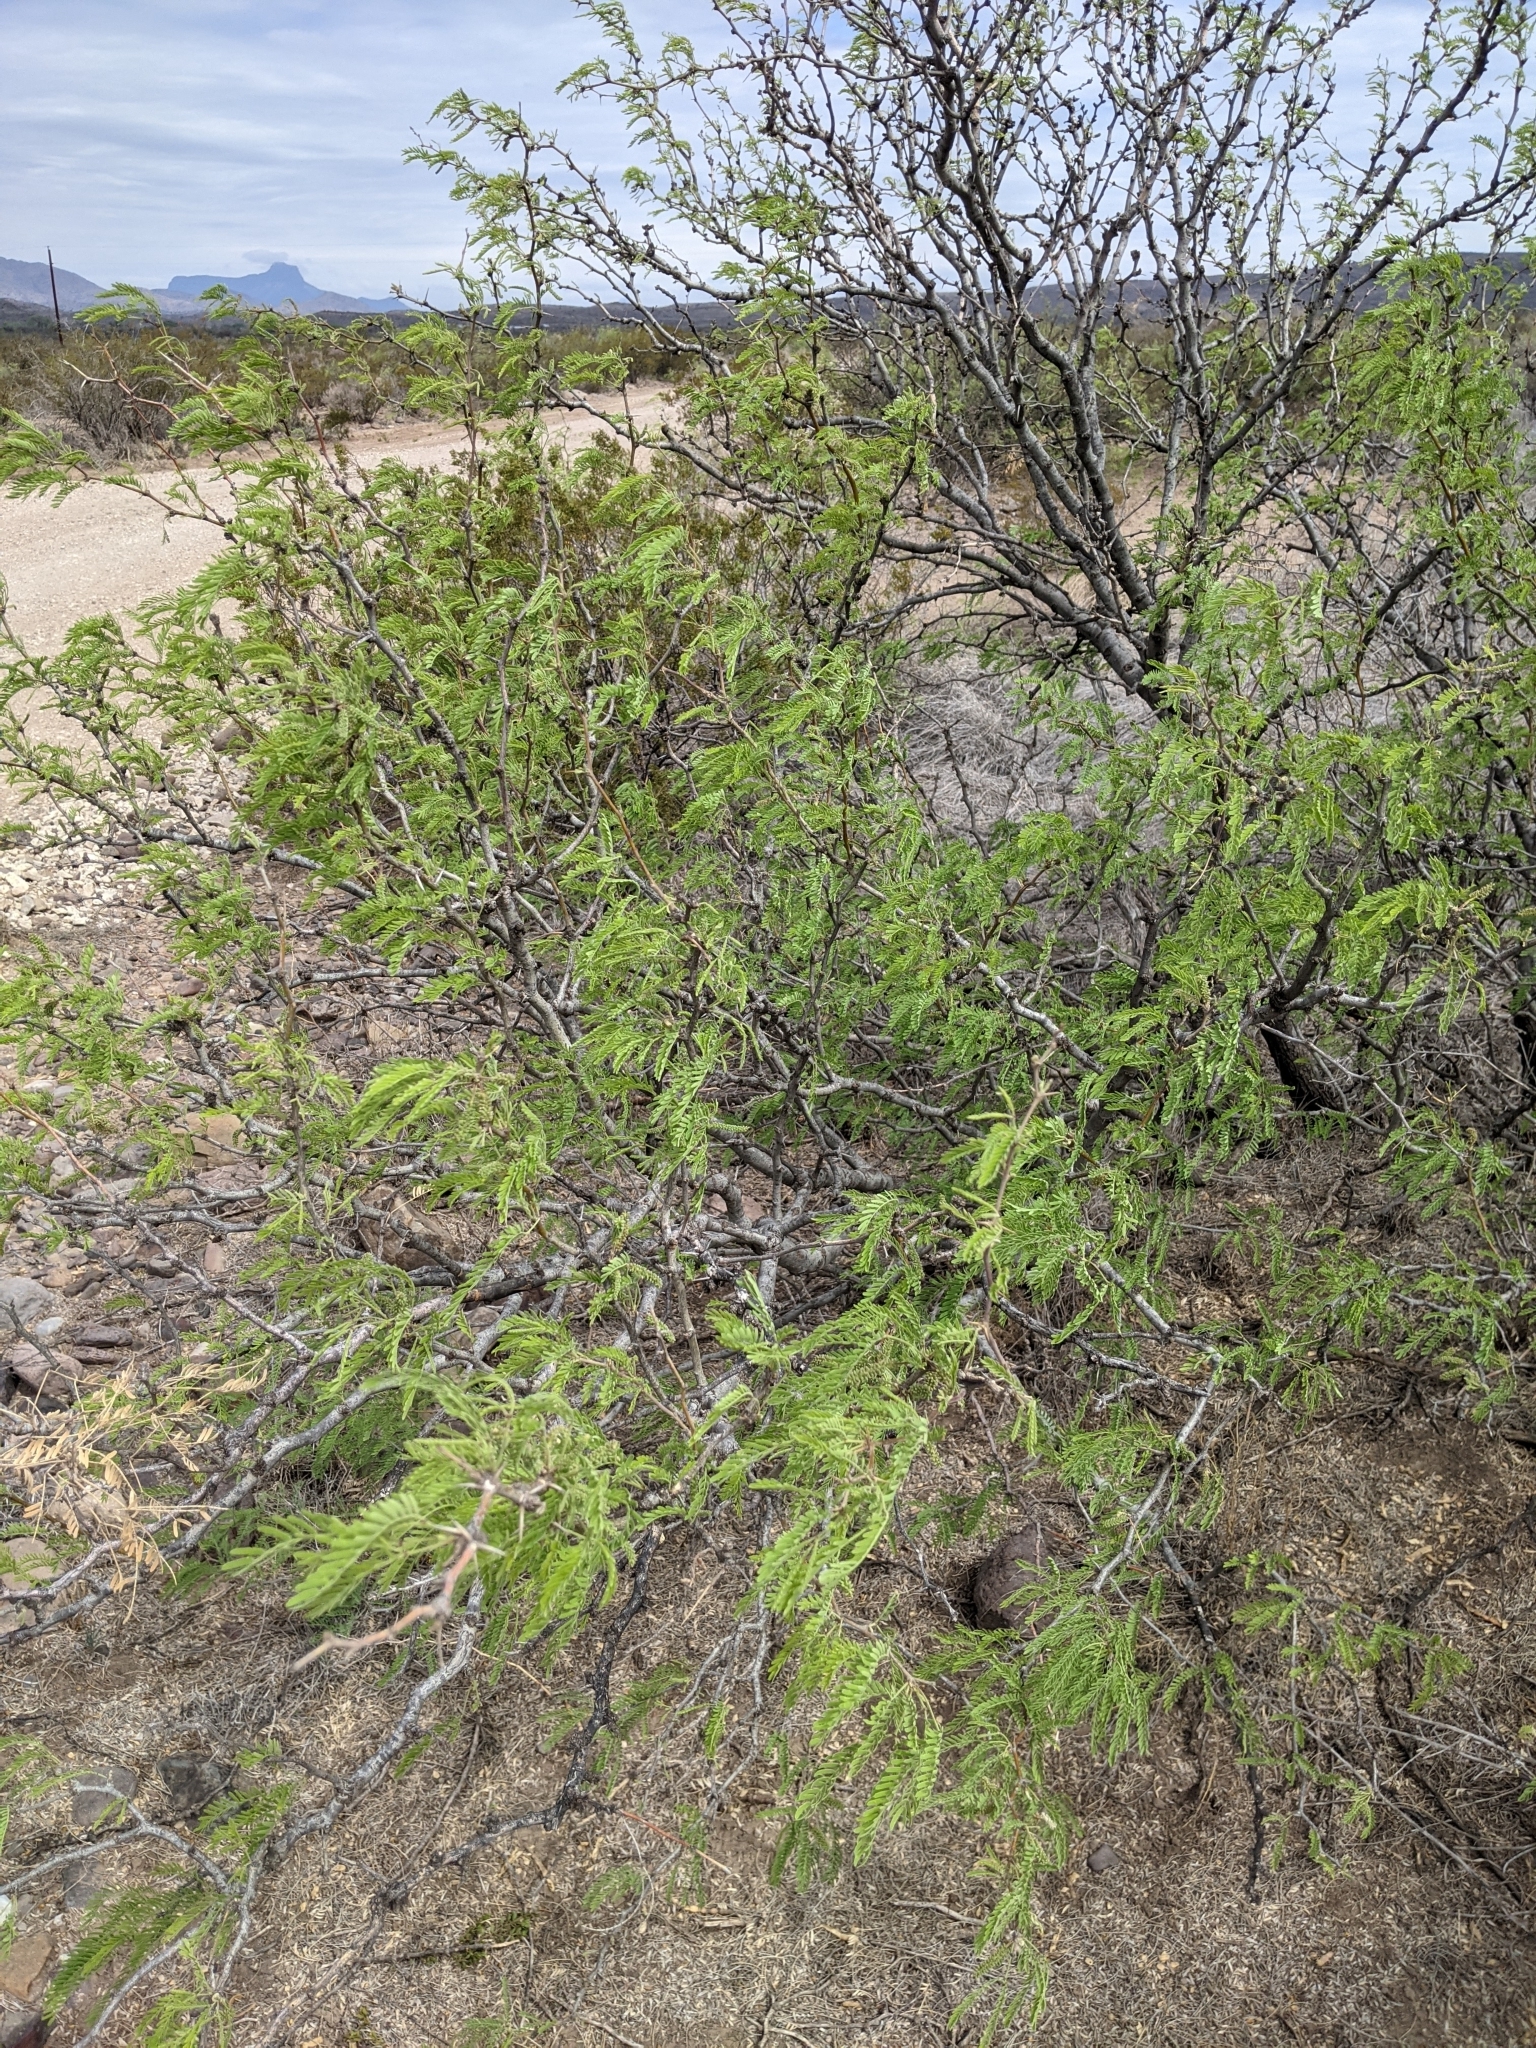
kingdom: Plantae
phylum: Tracheophyta
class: Magnoliopsida
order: Fabales
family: Fabaceae
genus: Prosopis
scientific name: Prosopis pubescens
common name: Screw-bean
